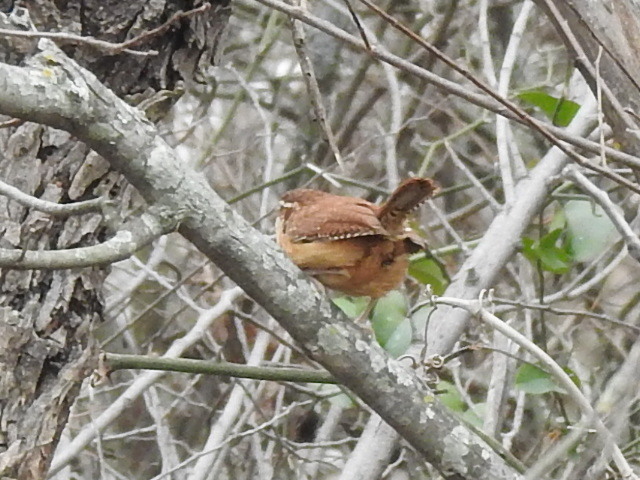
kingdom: Animalia
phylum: Chordata
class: Aves
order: Passeriformes
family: Troglodytidae
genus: Thryothorus
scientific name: Thryothorus ludovicianus
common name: Carolina wren
